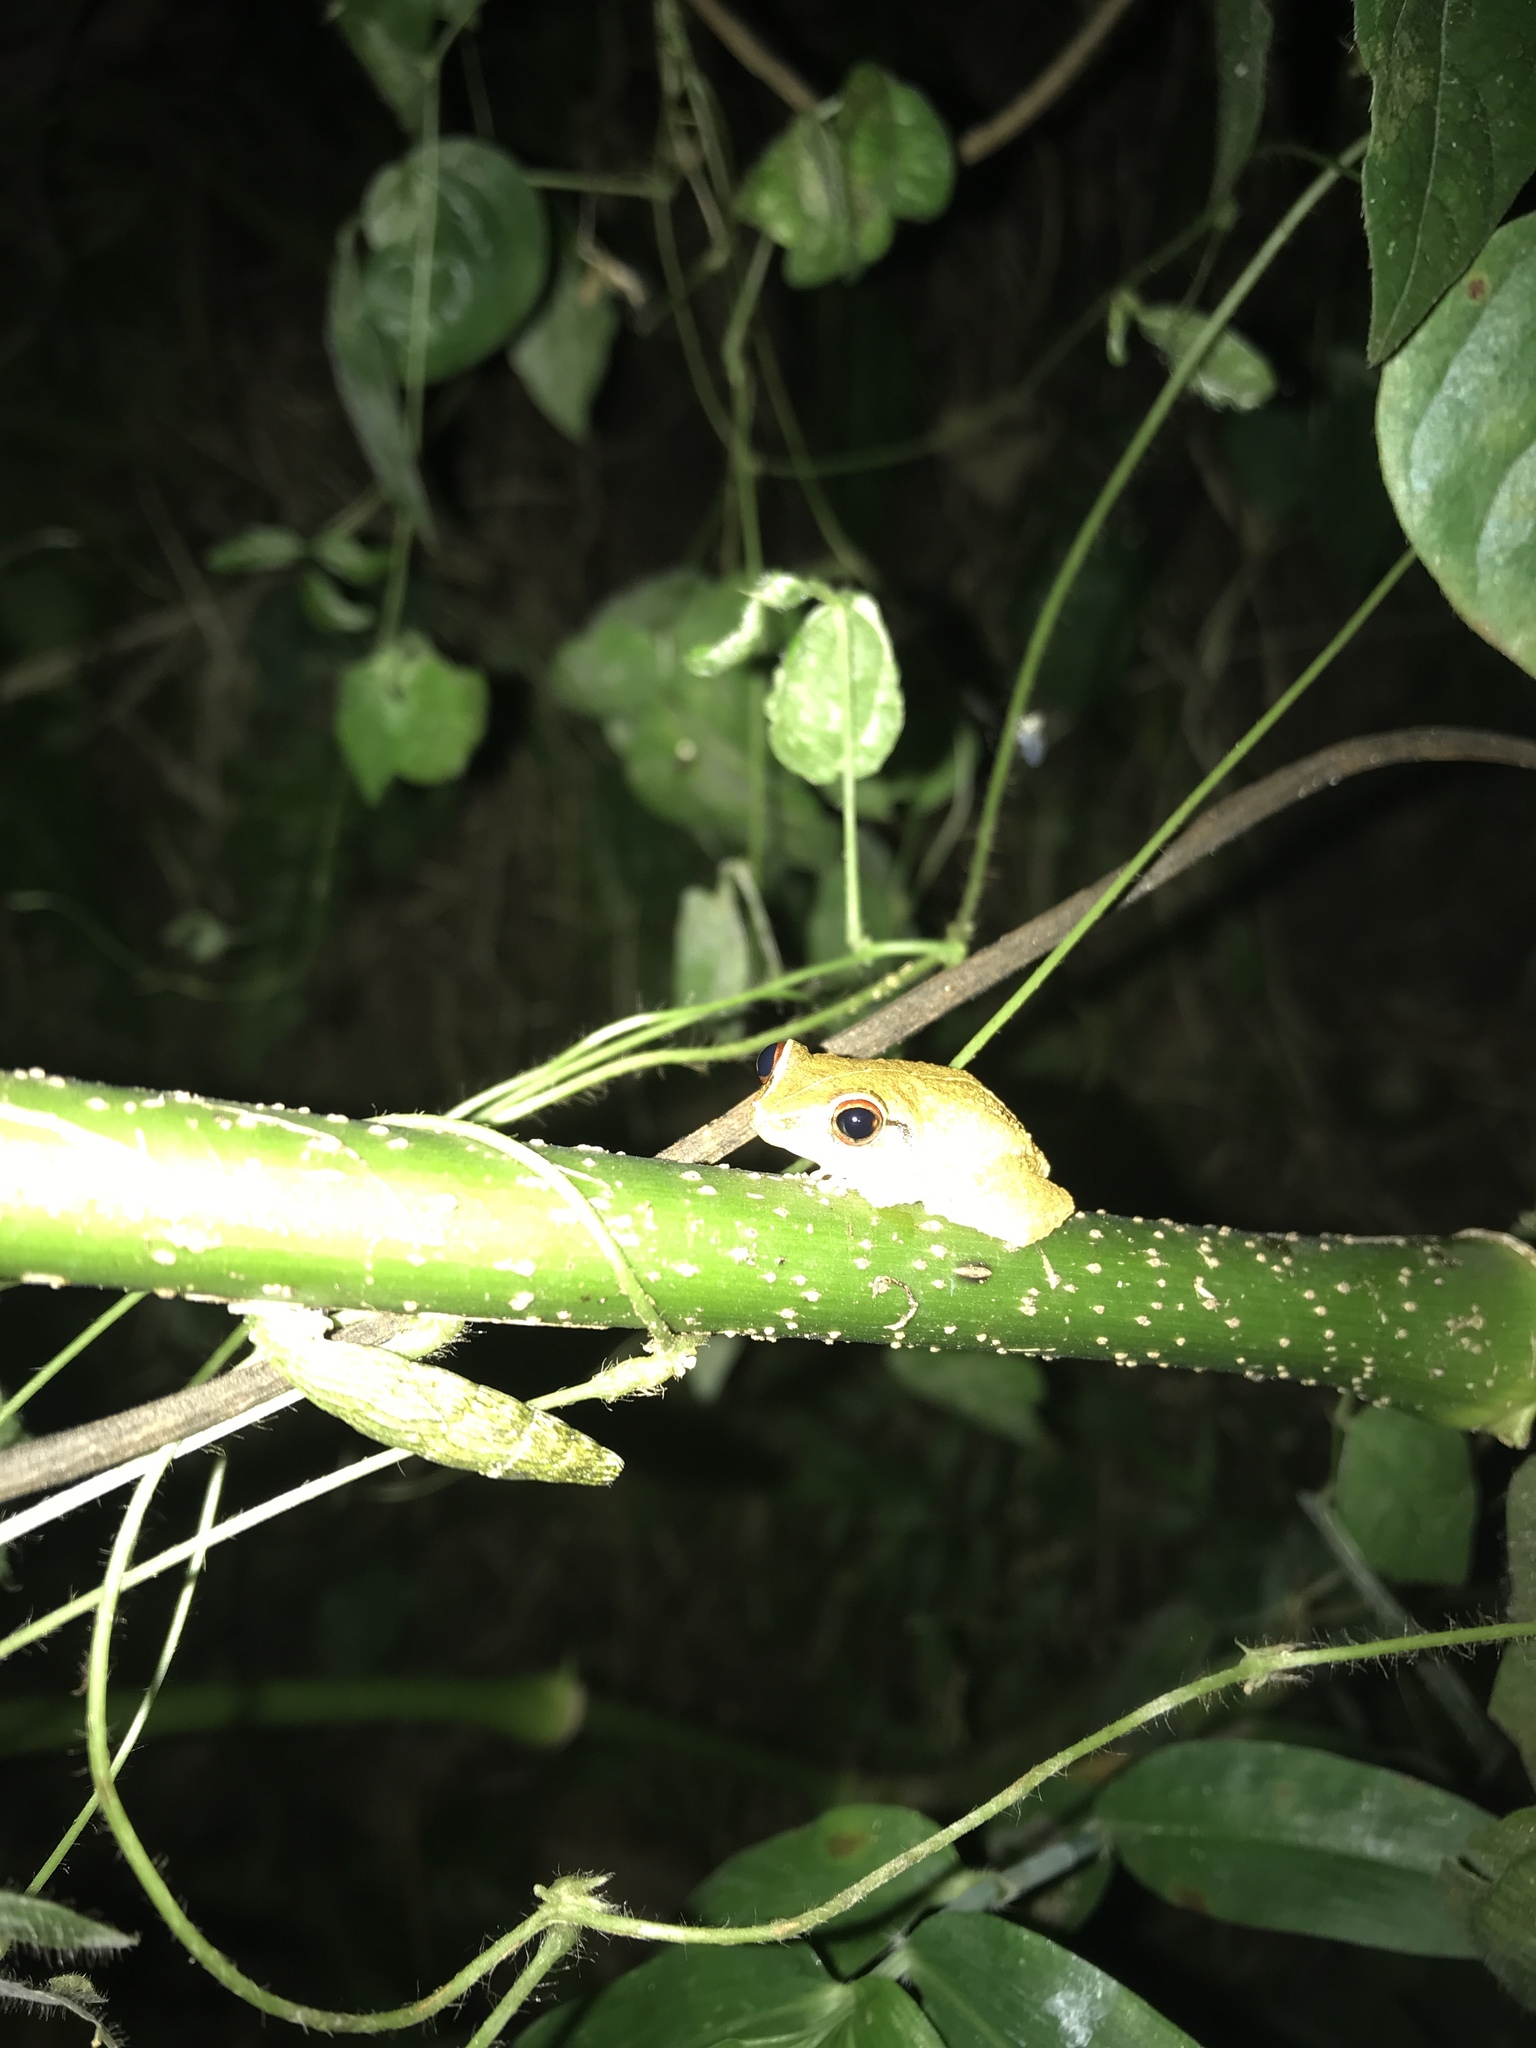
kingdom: Animalia
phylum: Chordata
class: Amphibia
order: Anura
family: Eleutherodactylidae
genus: Eleutherodactylus
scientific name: Eleutherodactylus antillensis
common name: Antillean coqui
